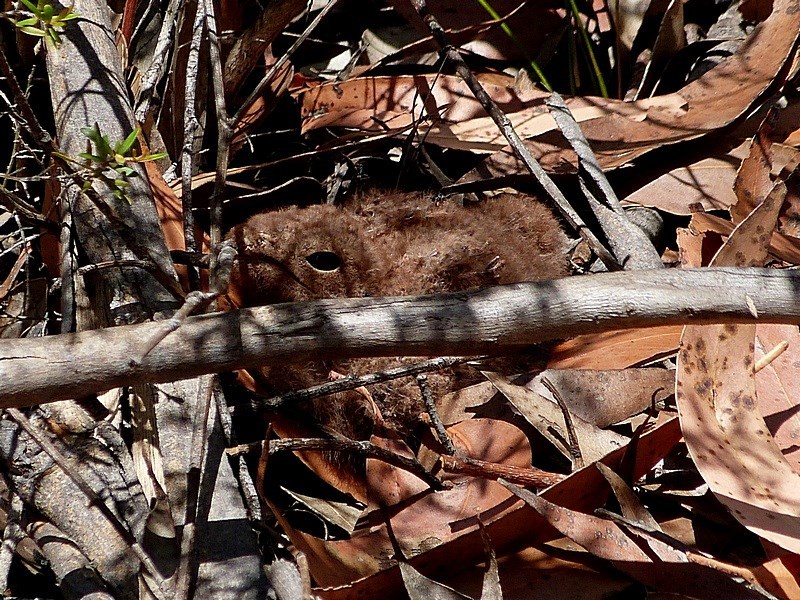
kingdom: Animalia
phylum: Chordata
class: Aves
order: Caprimulgiformes
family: Caprimulgidae
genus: Eurostopodus
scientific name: Eurostopodus mystacalis
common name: White-throated nightjar
